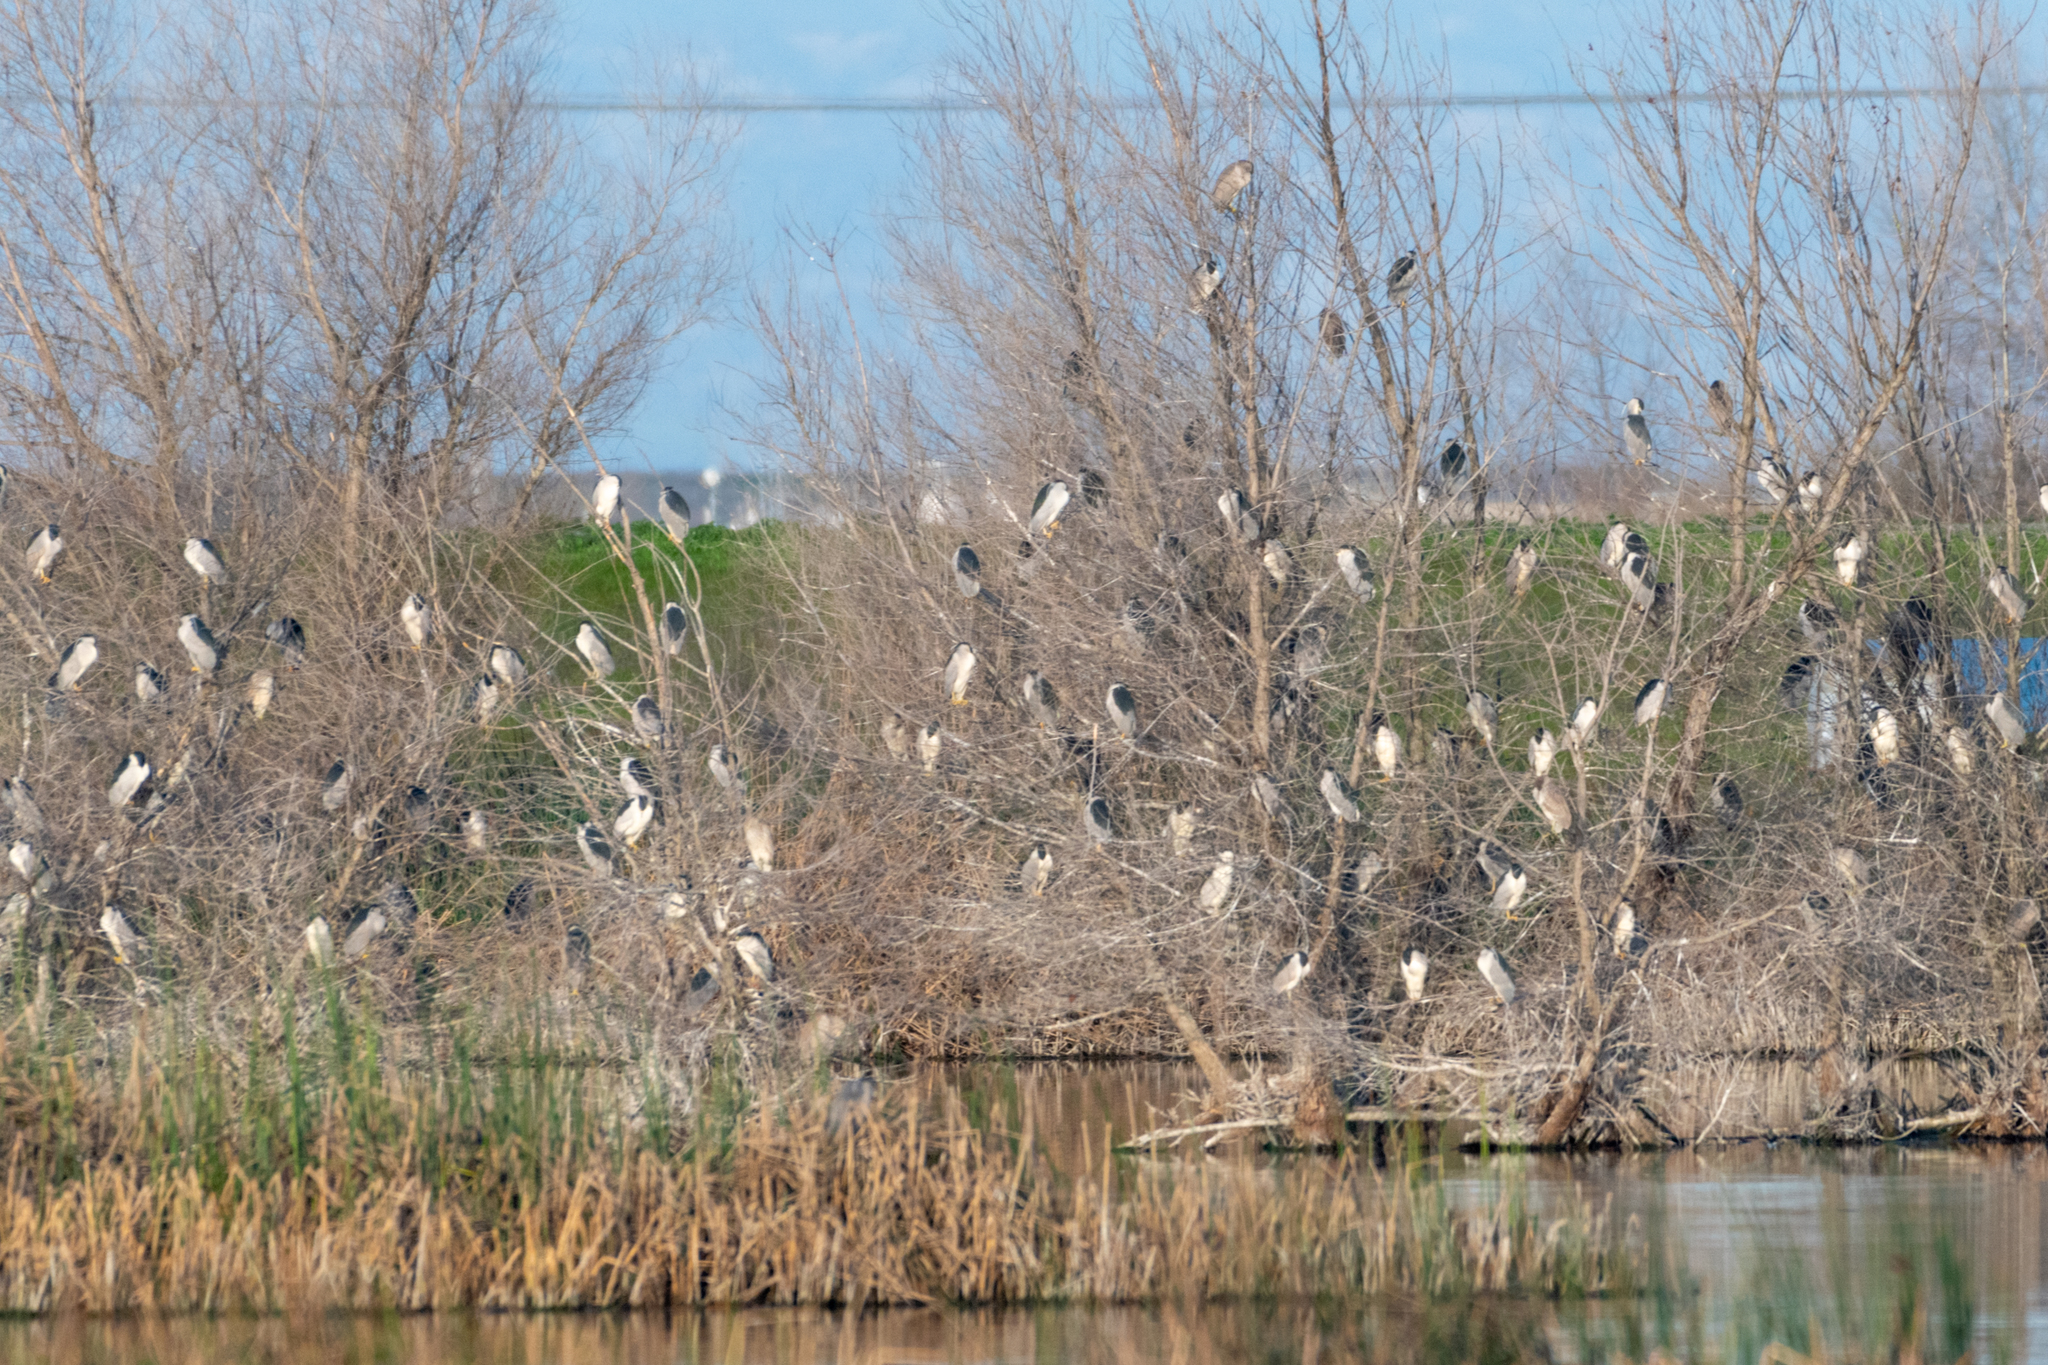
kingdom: Animalia
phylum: Chordata
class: Aves
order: Pelecaniformes
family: Ardeidae
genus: Nycticorax
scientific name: Nycticorax nycticorax
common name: Black-crowned night heron
